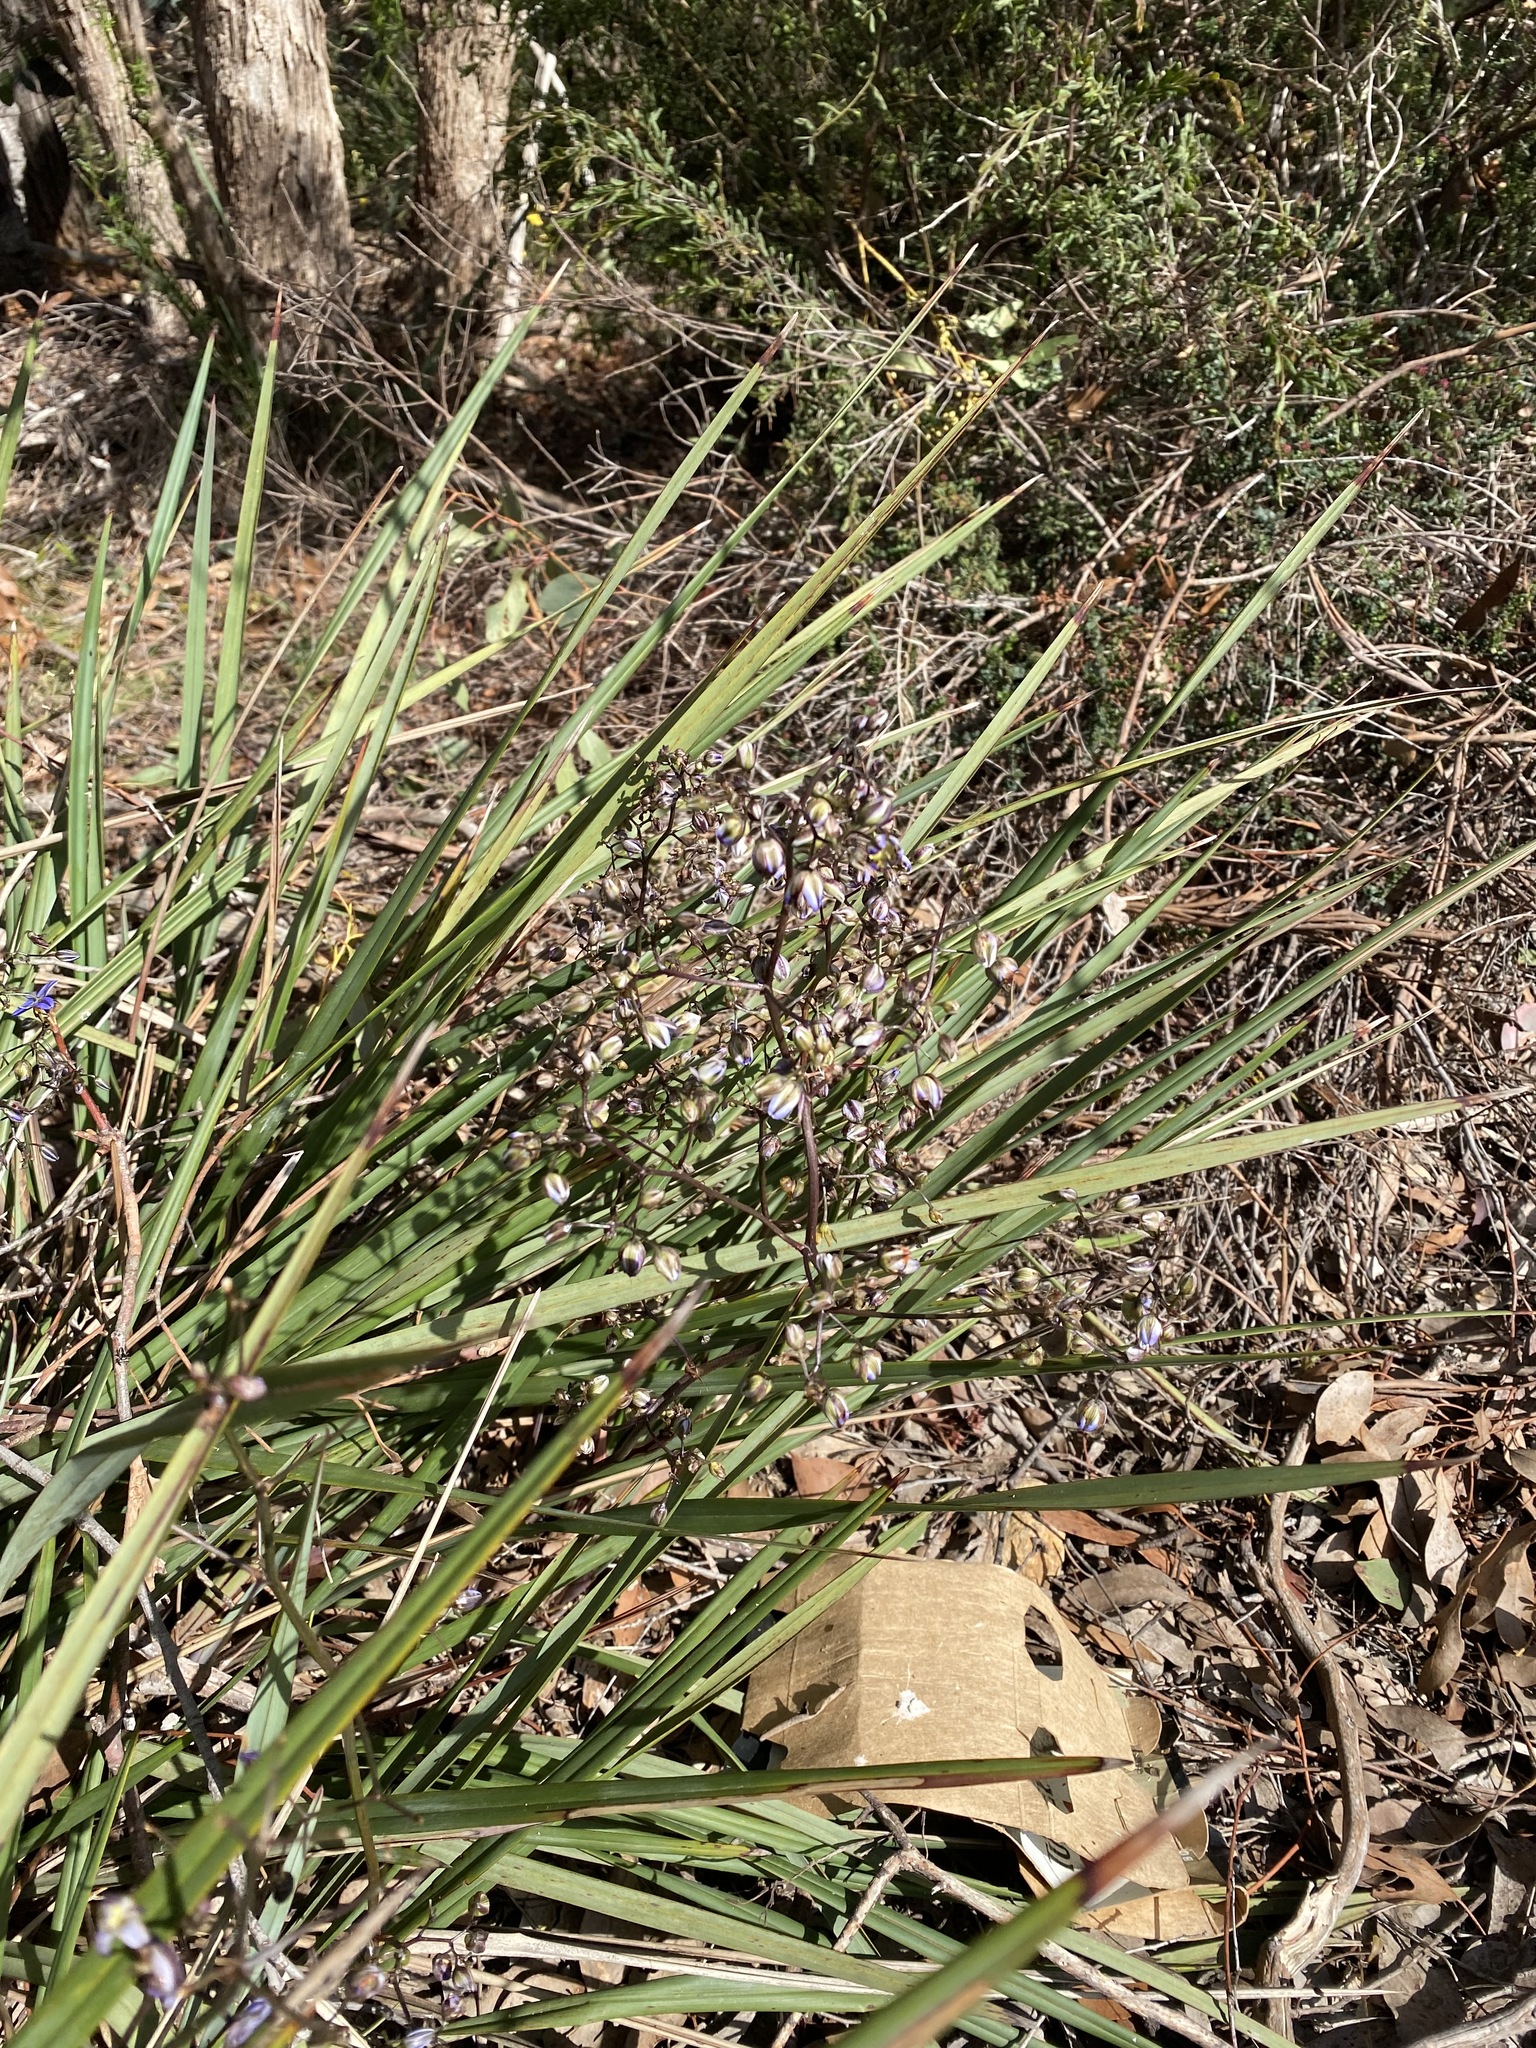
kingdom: Plantae
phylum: Tracheophyta
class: Liliopsida
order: Asparagales
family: Asphodelaceae
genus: Dianella
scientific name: Dianella revoluta
